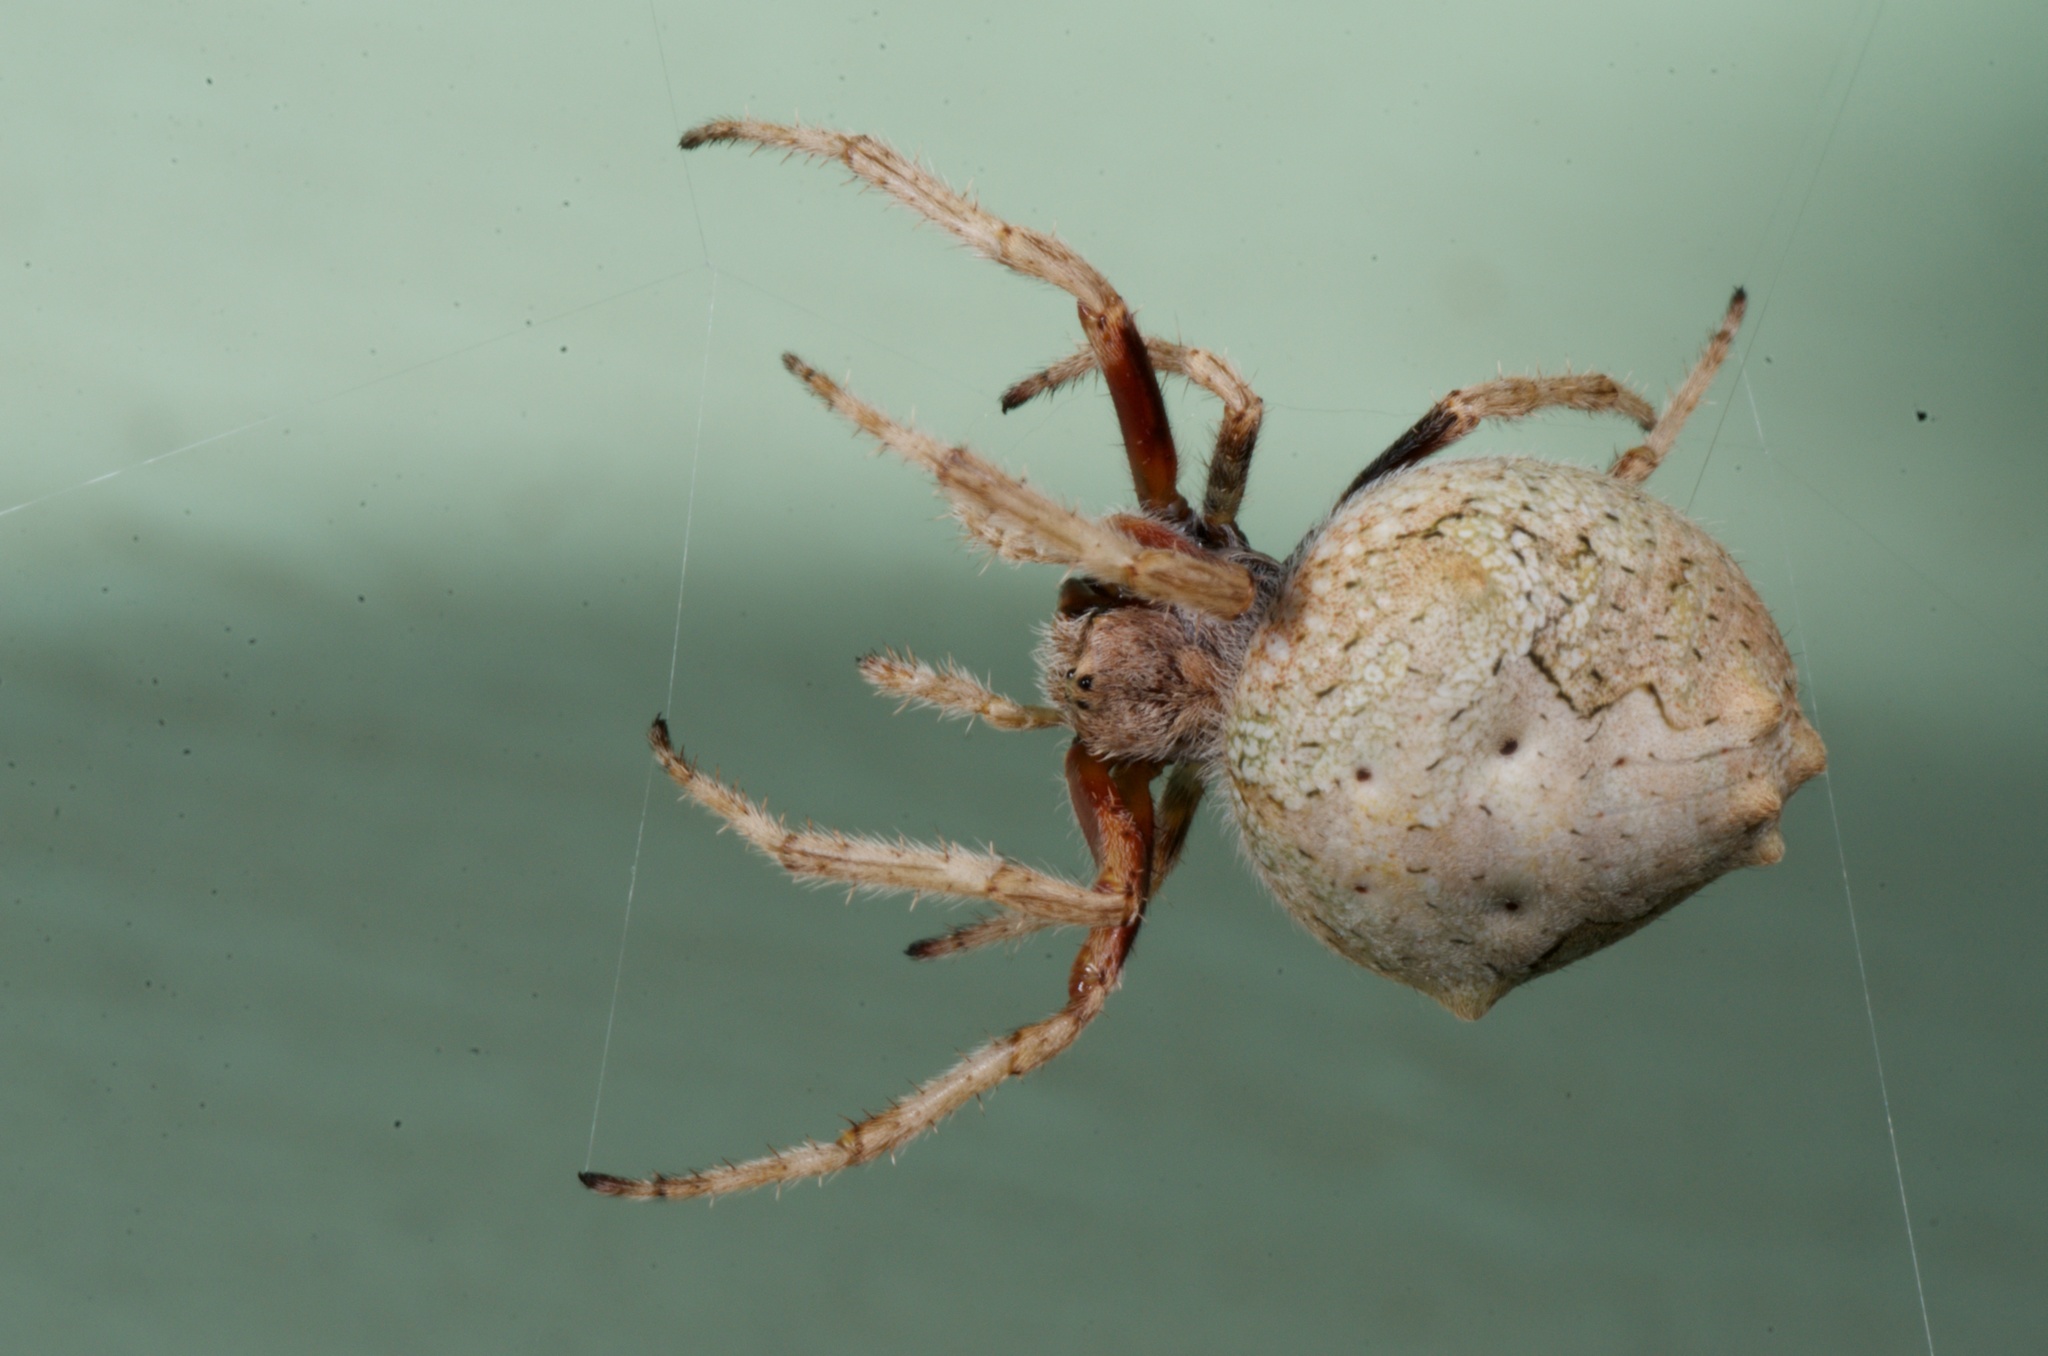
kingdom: Animalia
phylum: Arthropoda
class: Arachnida
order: Araneae
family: Araneidae
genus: Eriophora
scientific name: Eriophora pustulosa
